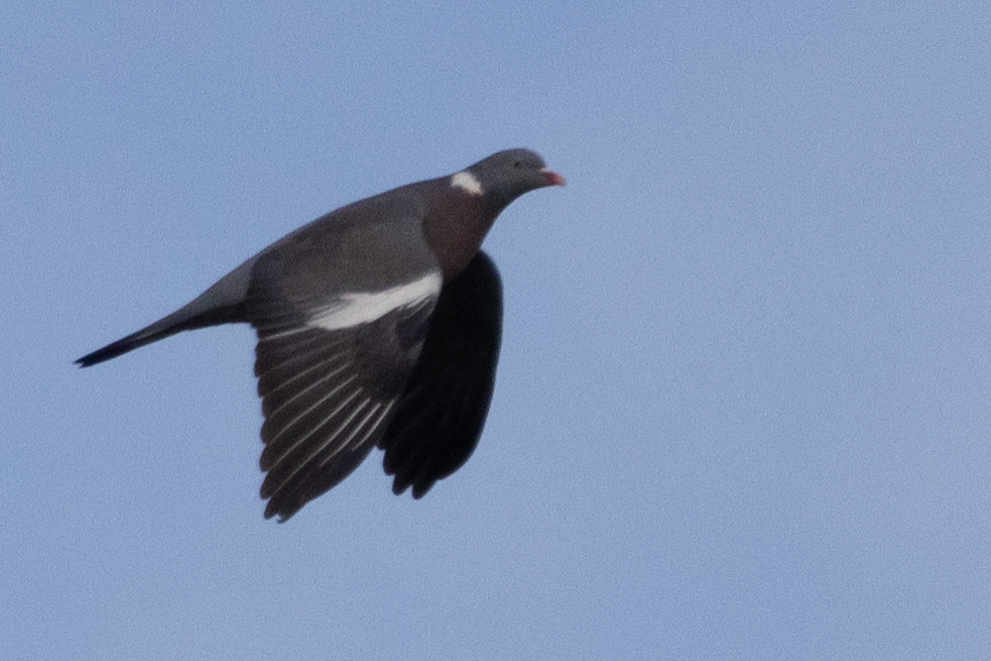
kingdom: Animalia
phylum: Chordata
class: Aves
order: Columbiformes
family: Columbidae
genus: Columba
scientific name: Columba palumbus
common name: Common wood pigeon
